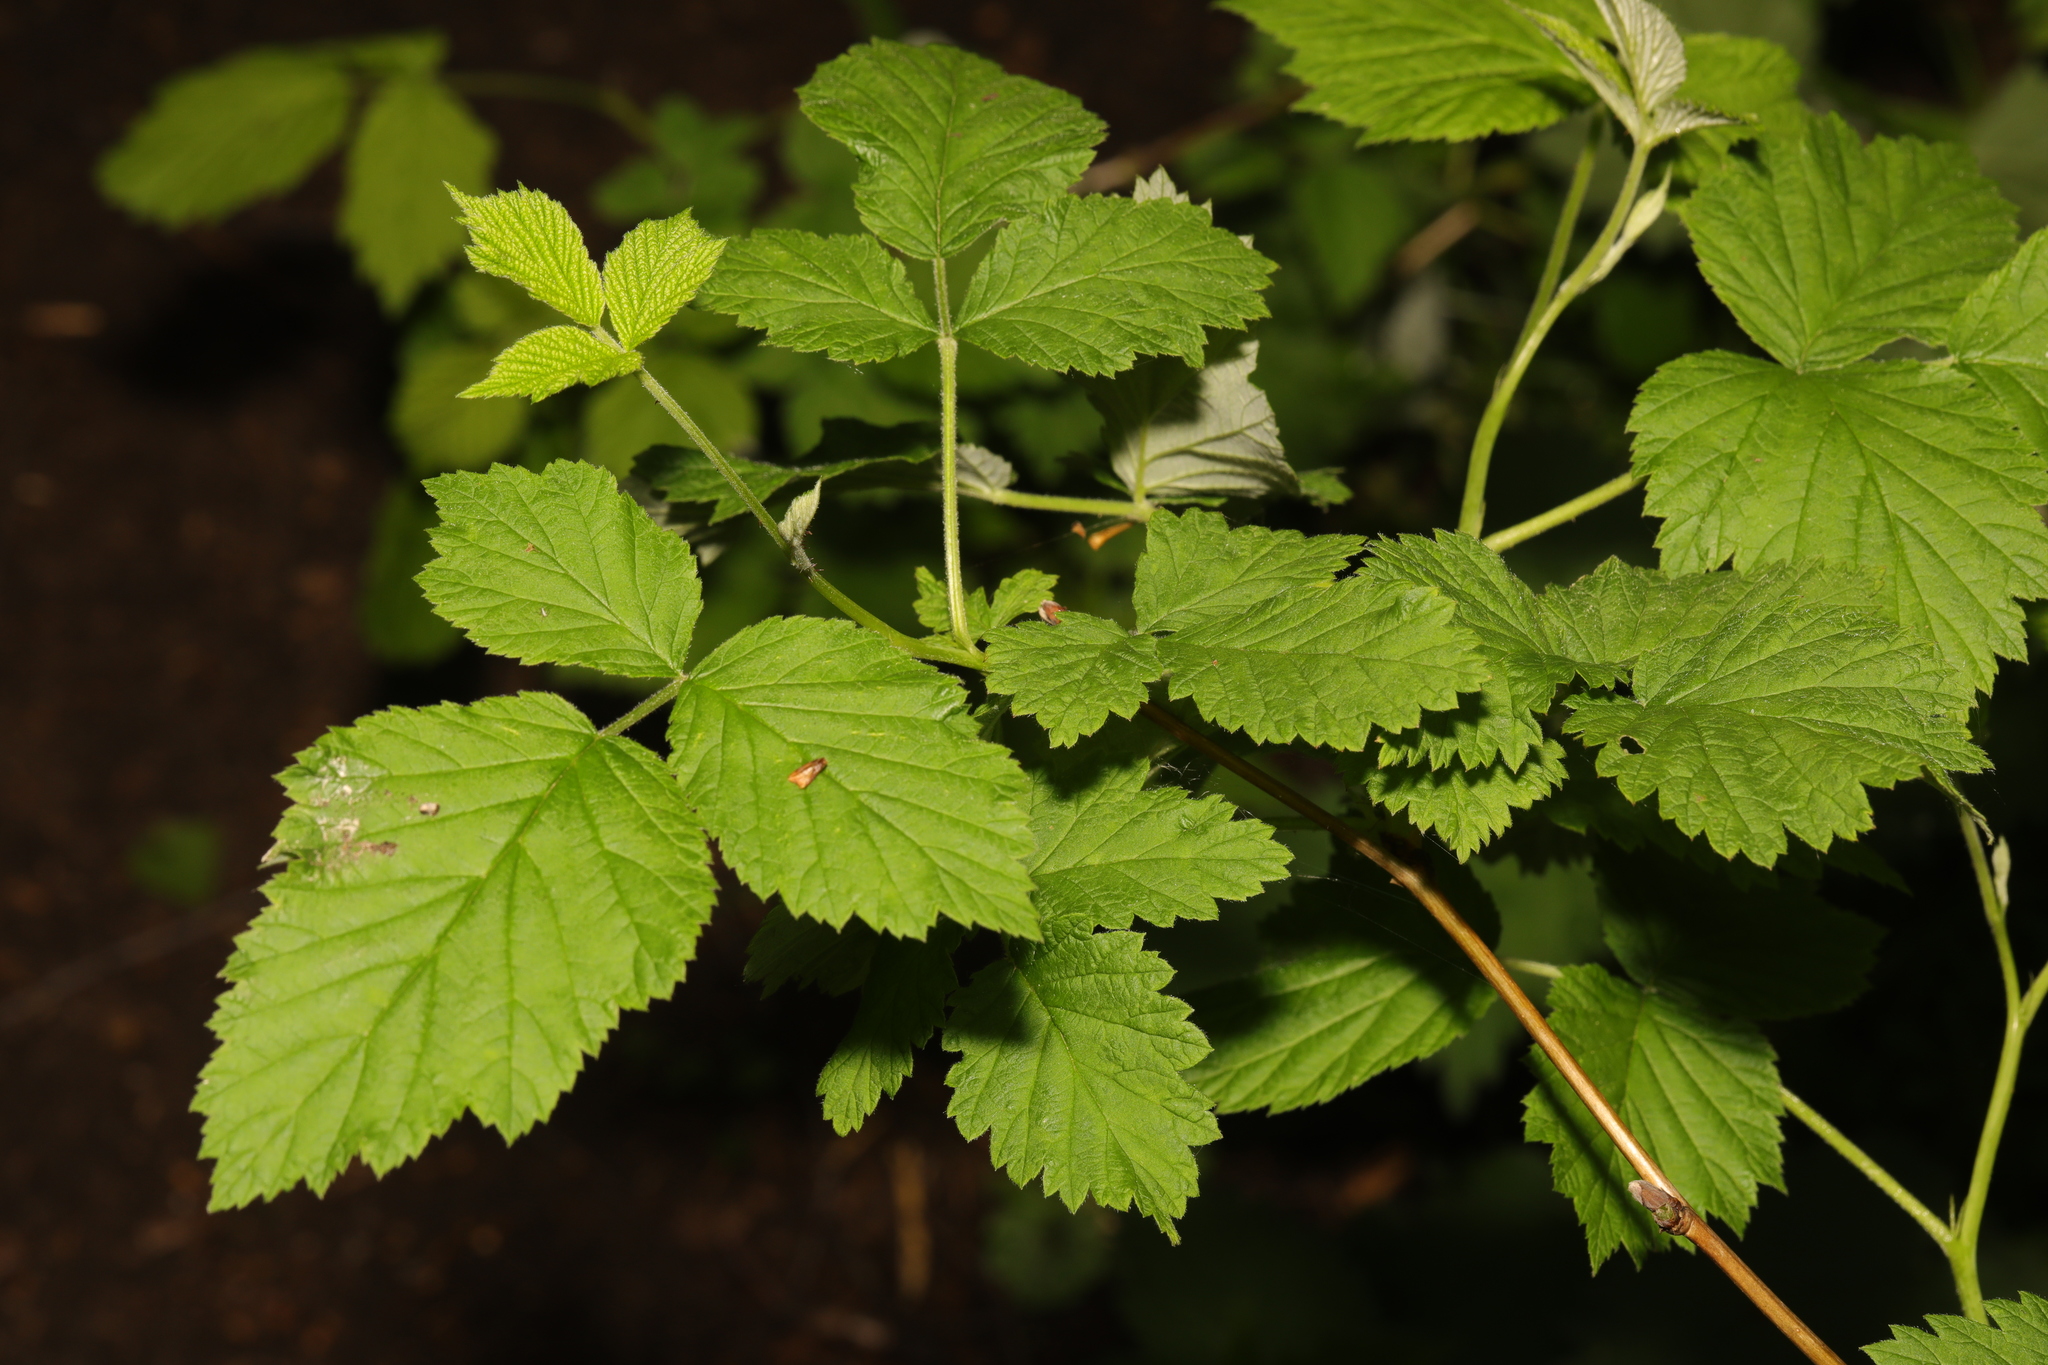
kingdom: Plantae
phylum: Tracheophyta
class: Magnoliopsida
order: Rosales
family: Rosaceae
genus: Rubus
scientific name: Rubus idaeus
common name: Raspberry
